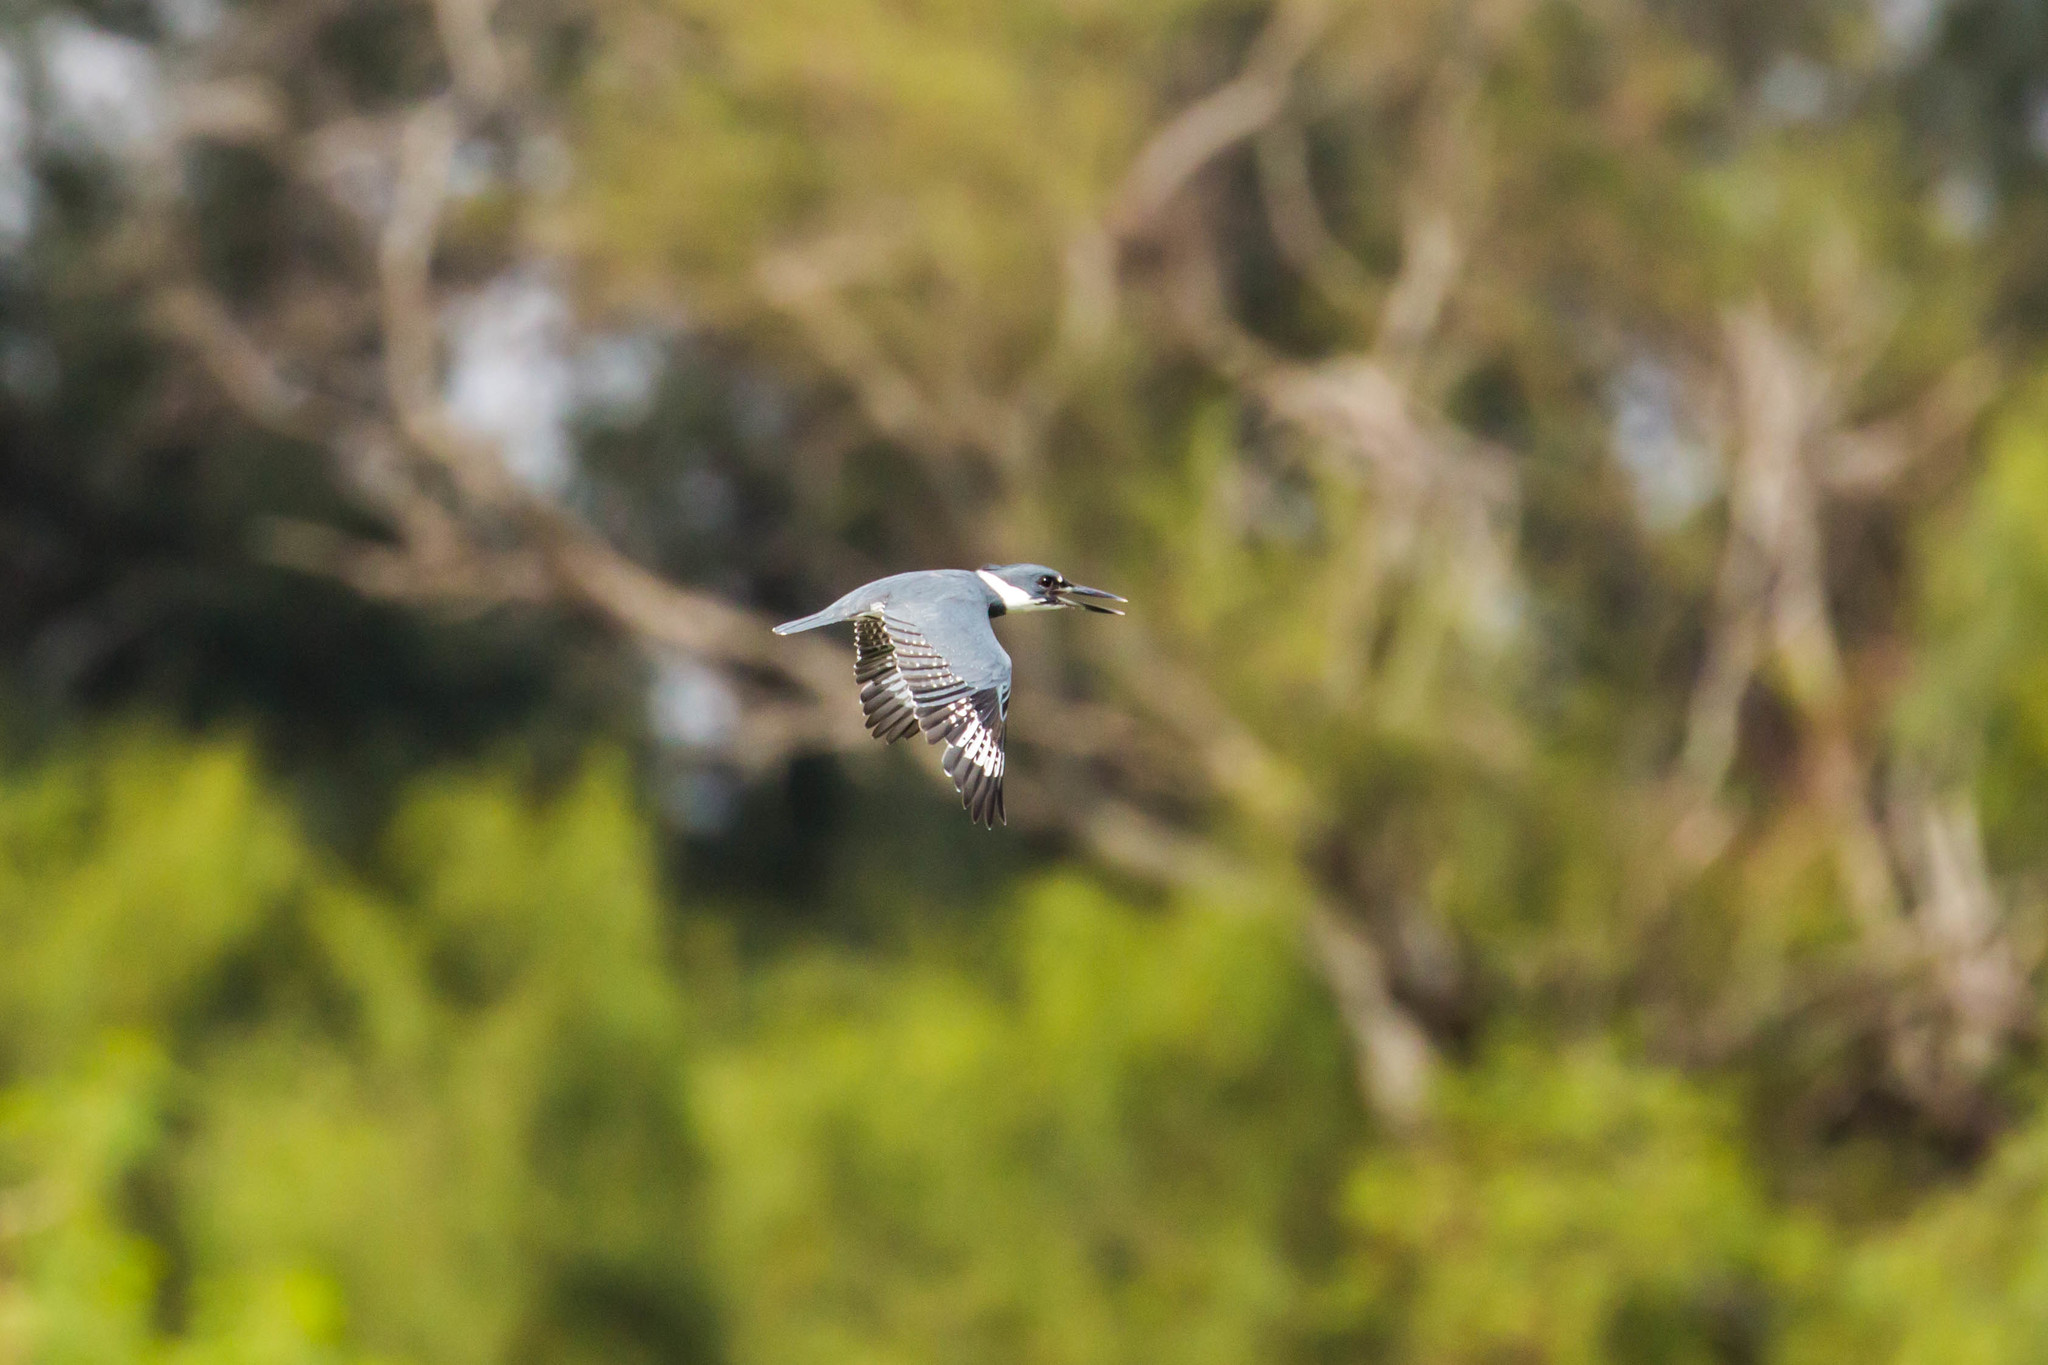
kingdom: Animalia
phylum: Chordata
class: Aves
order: Coraciiformes
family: Alcedinidae
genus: Megaceryle
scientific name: Megaceryle alcyon
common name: Belted kingfisher
